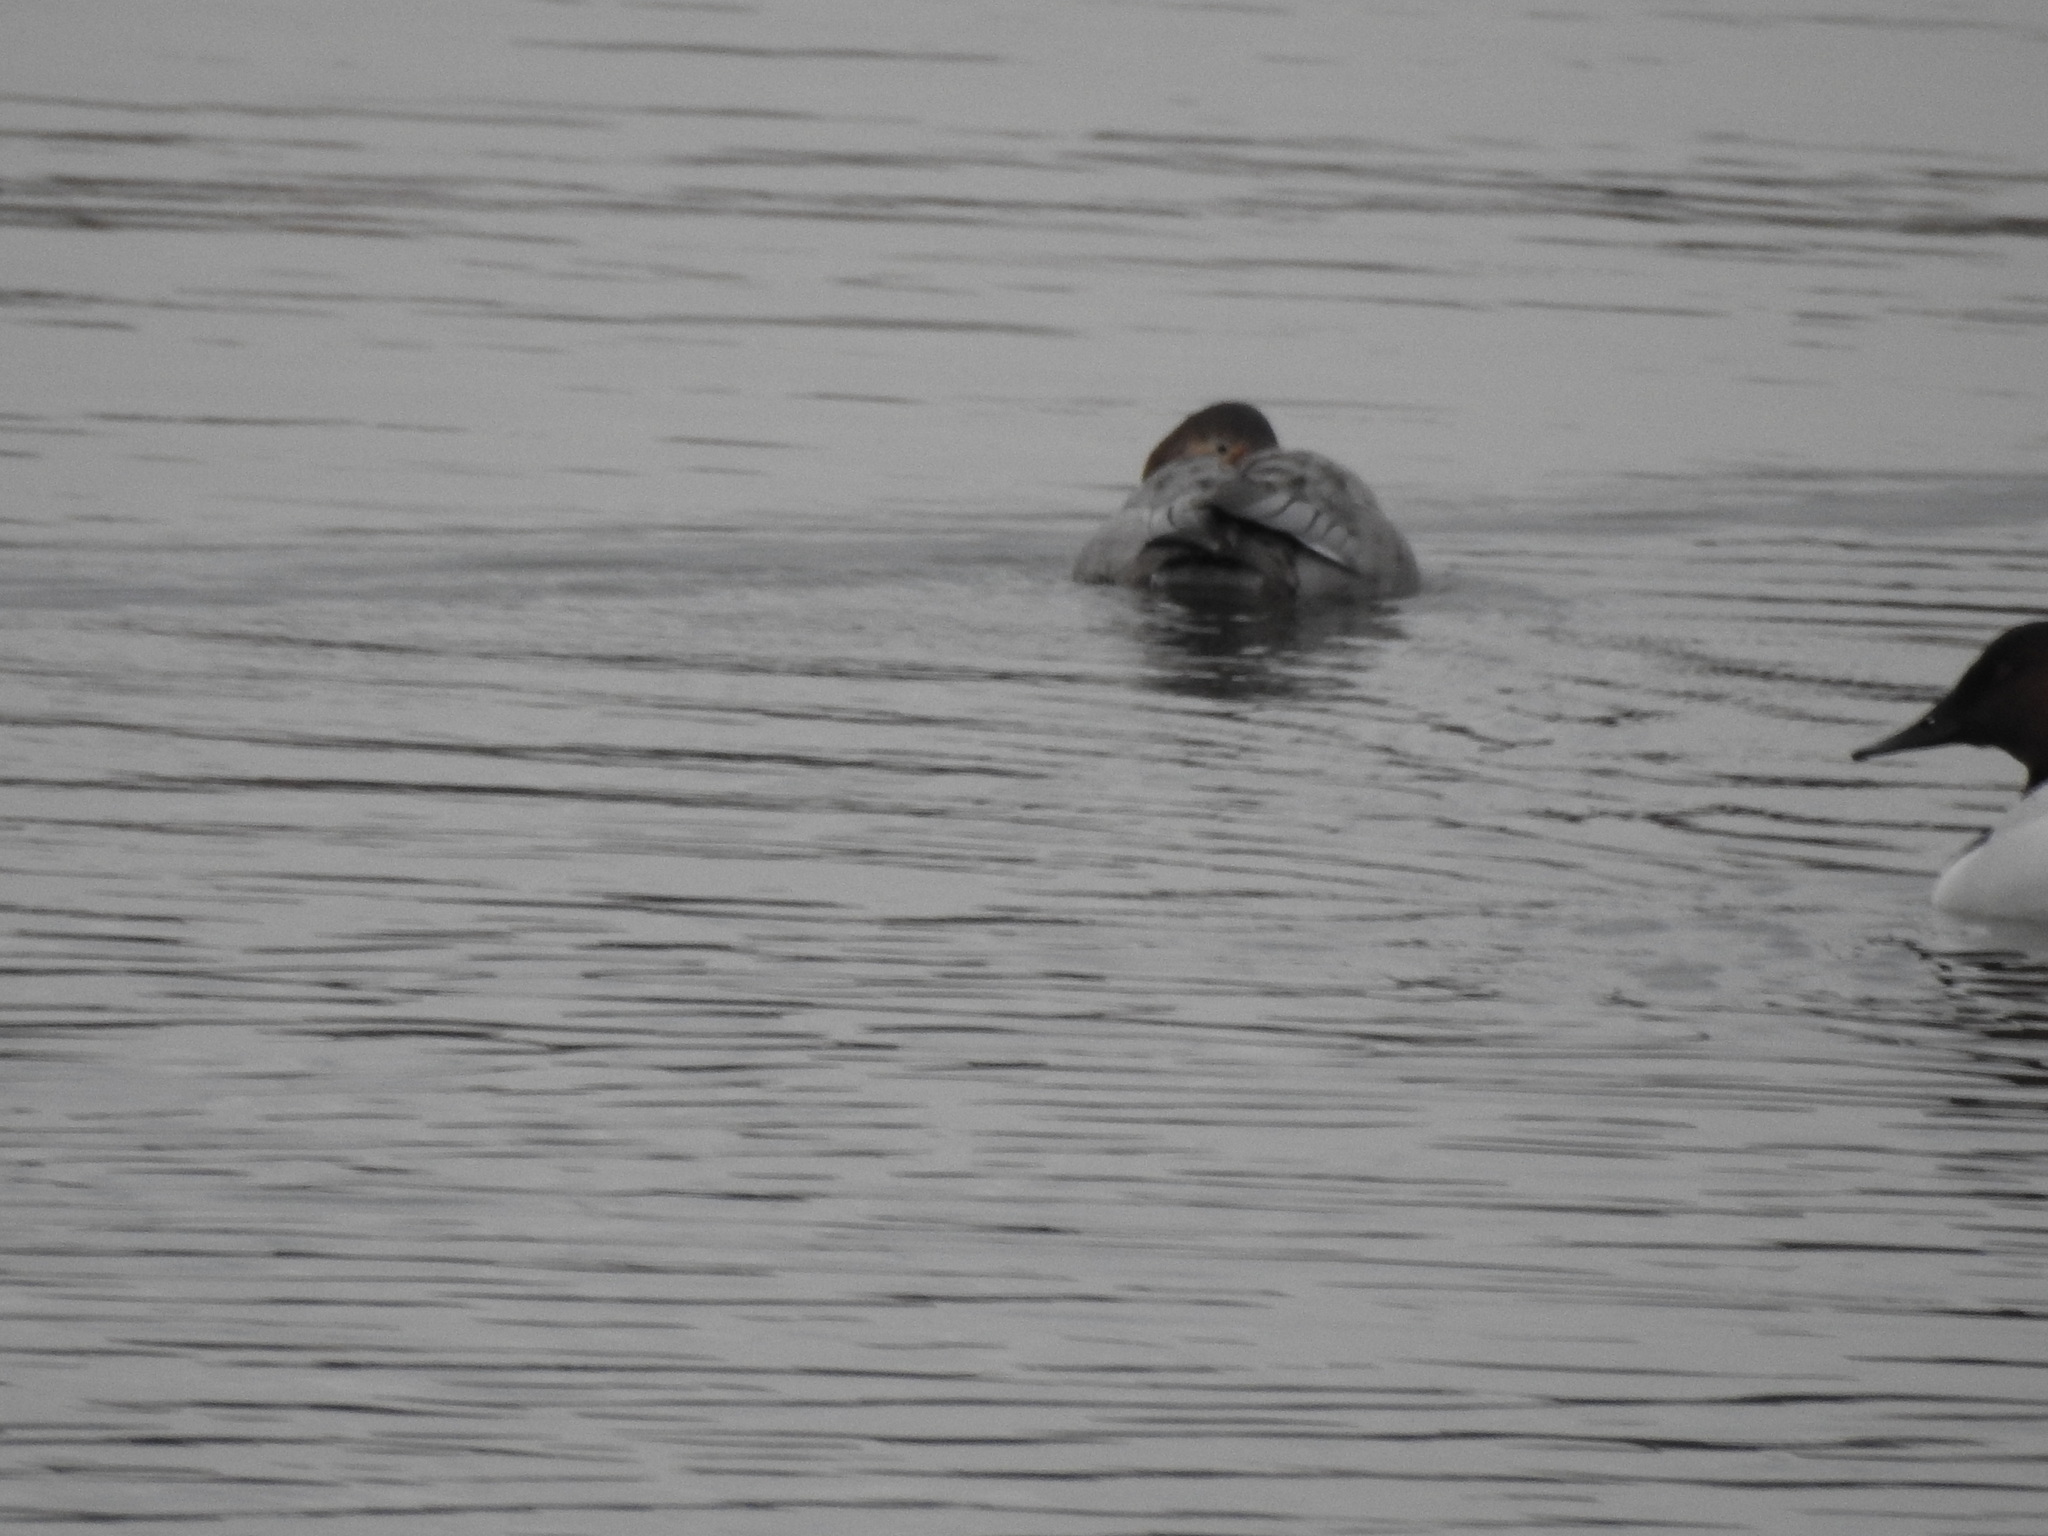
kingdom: Animalia
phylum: Chordata
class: Aves
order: Anseriformes
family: Anatidae
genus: Aythya
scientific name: Aythya valisineria
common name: Canvasback
